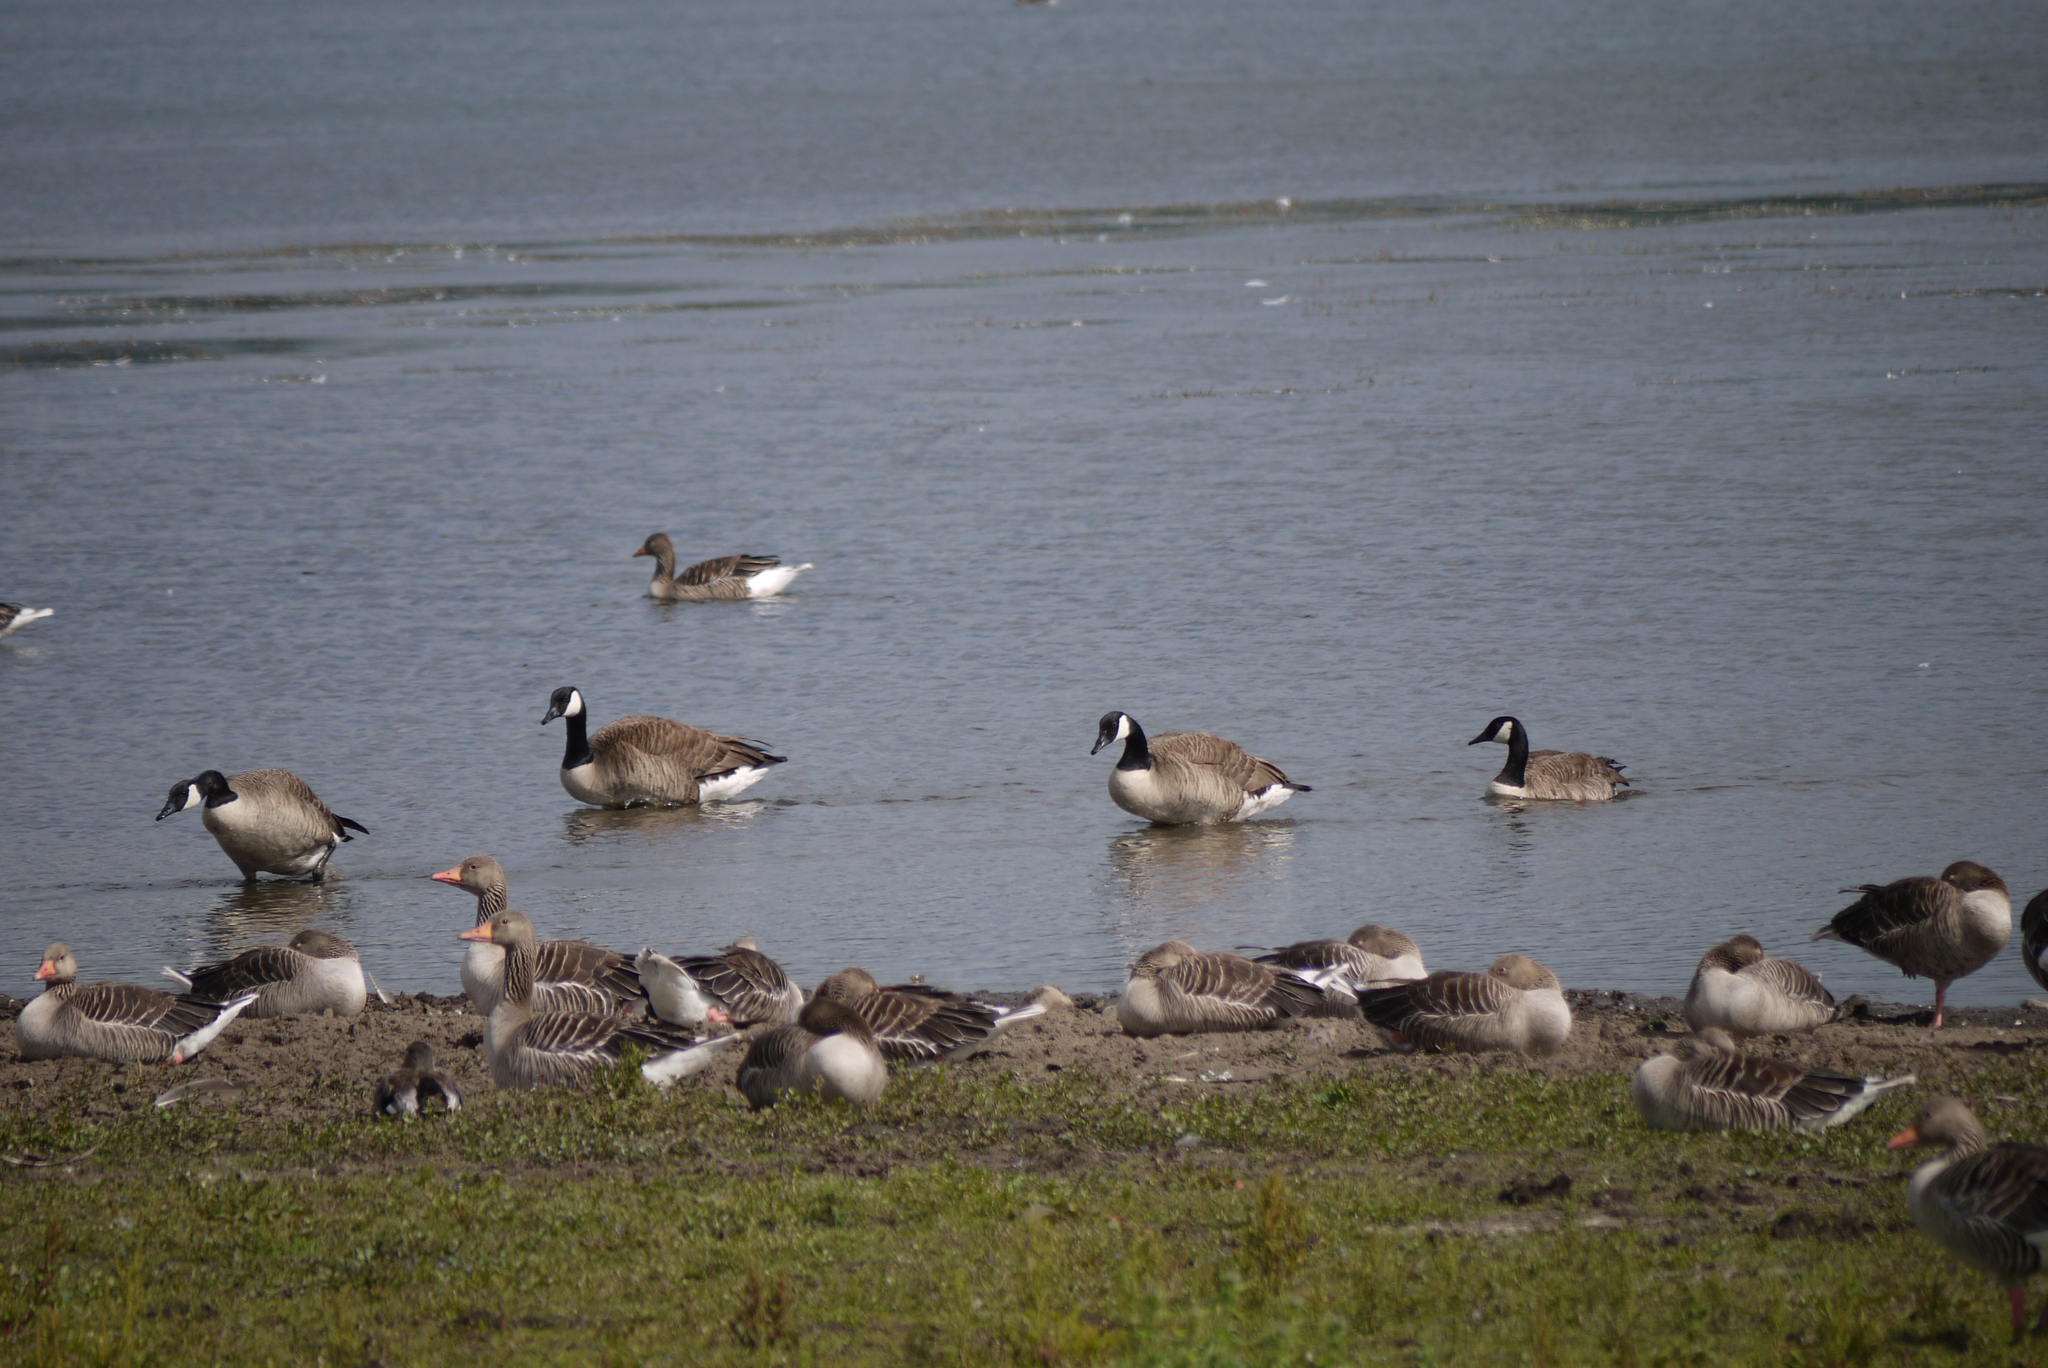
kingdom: Animalia
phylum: Chordata
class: Aves
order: Anseriformes
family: Anatidae
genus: Branta
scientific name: Branta canadensis
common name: Canada goose
